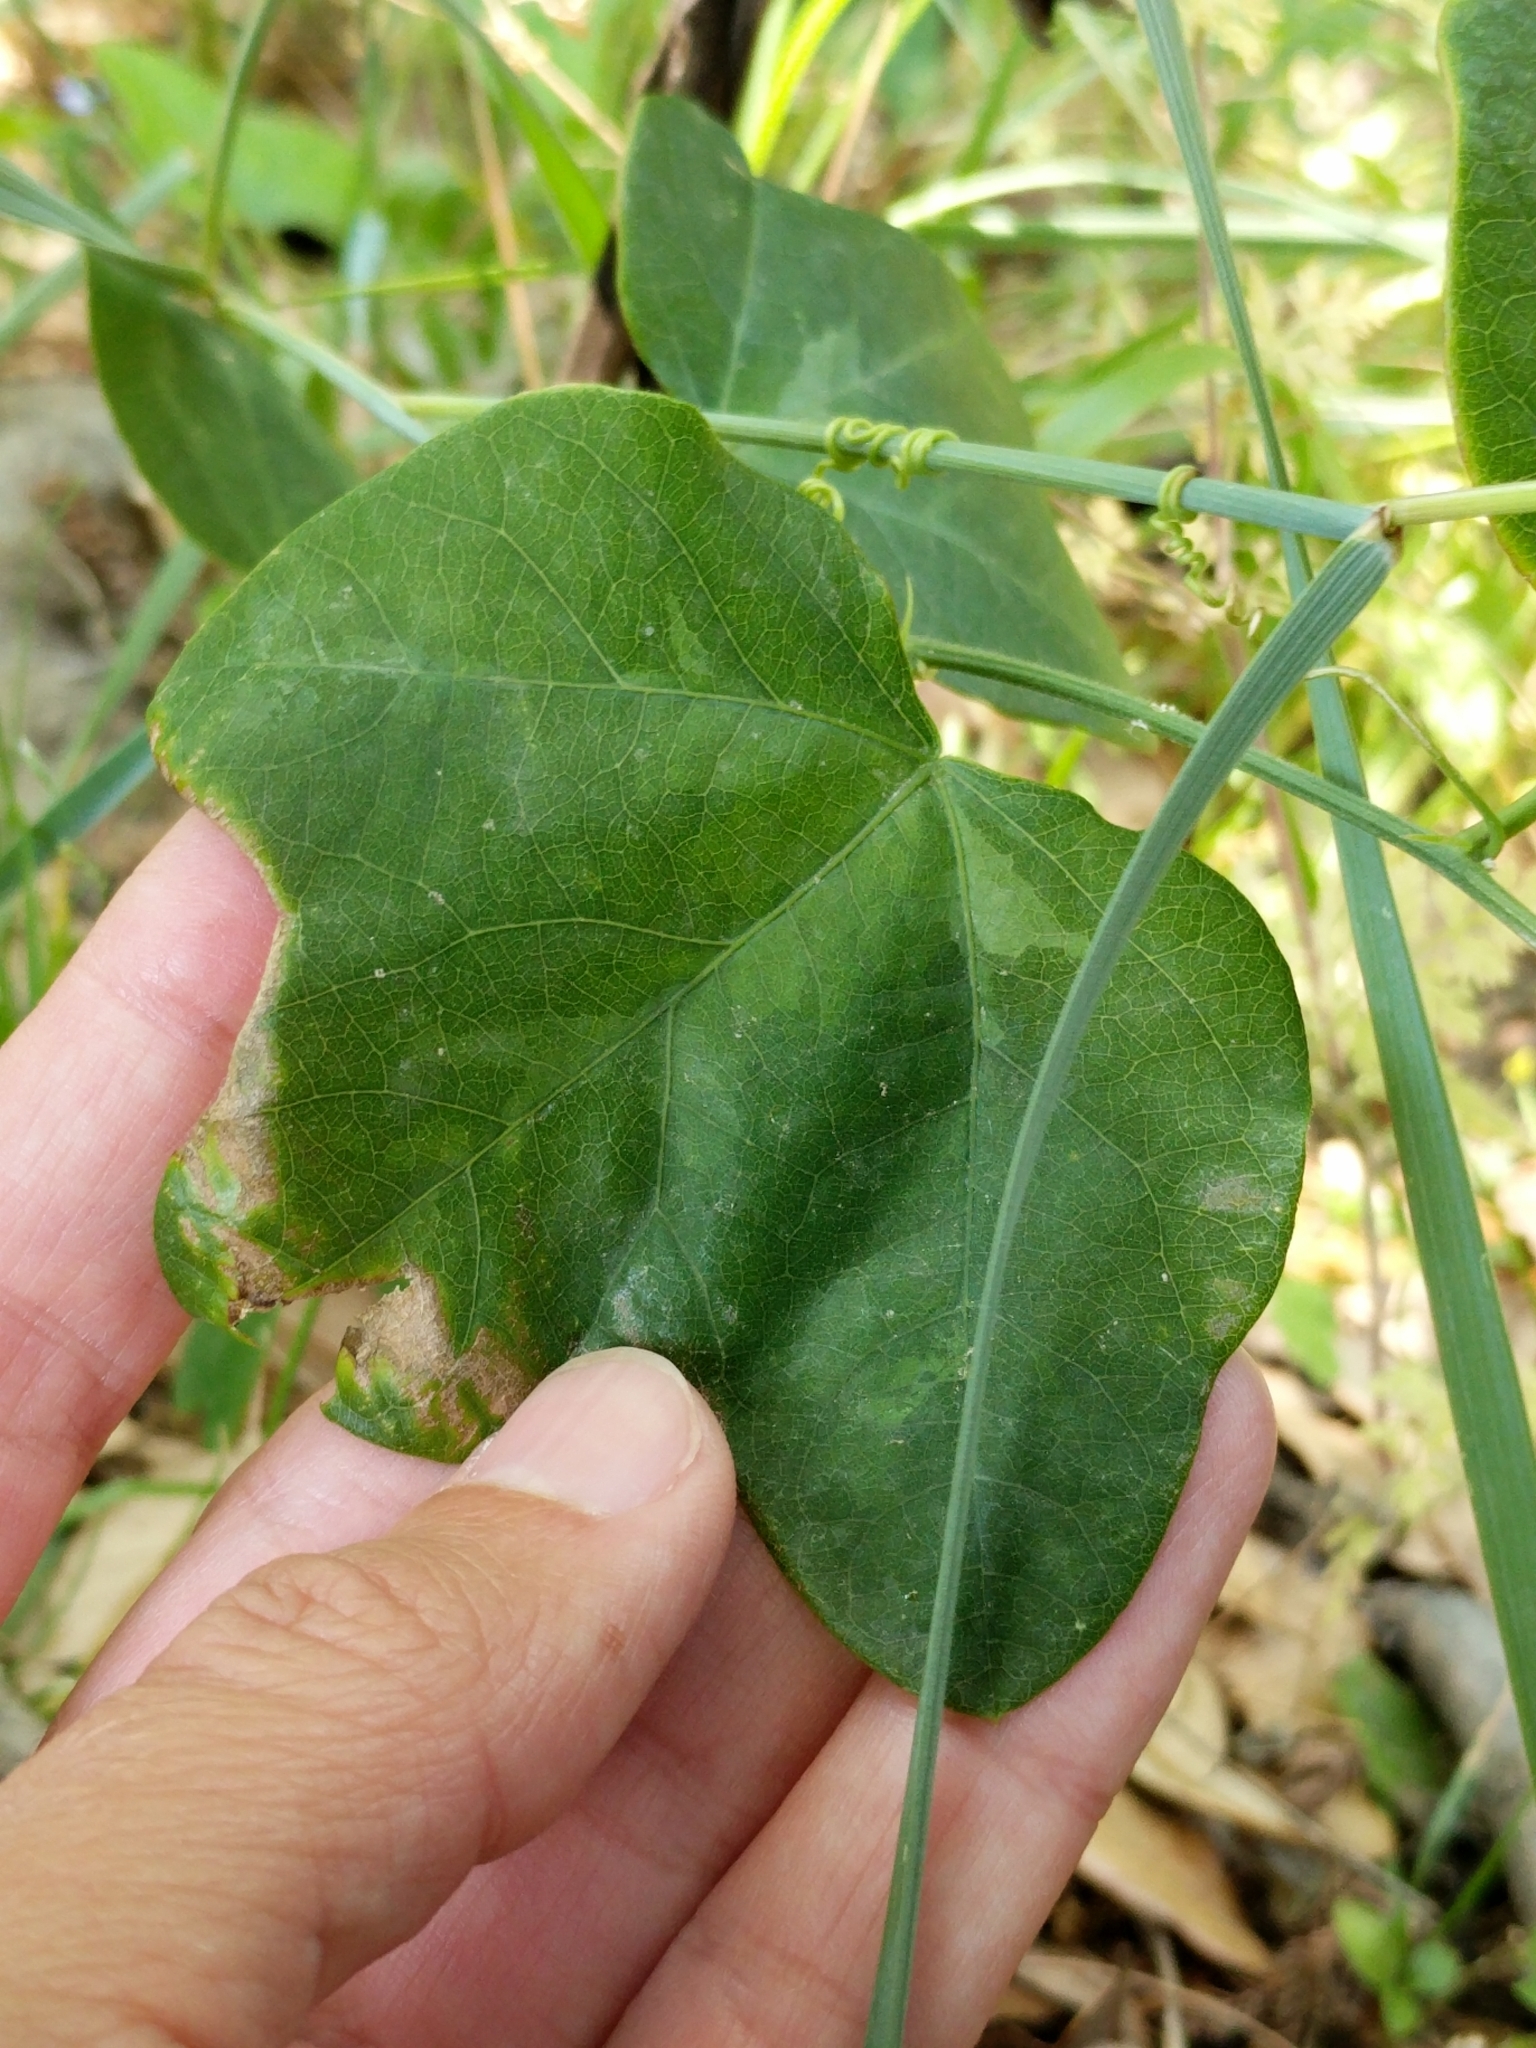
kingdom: Plantae
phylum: Tracheophyta
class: Magnoliopsida
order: Malpighiales
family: Passifloraceae
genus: Passiflora
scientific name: Passiflora lutea
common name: Yellow passionflower
